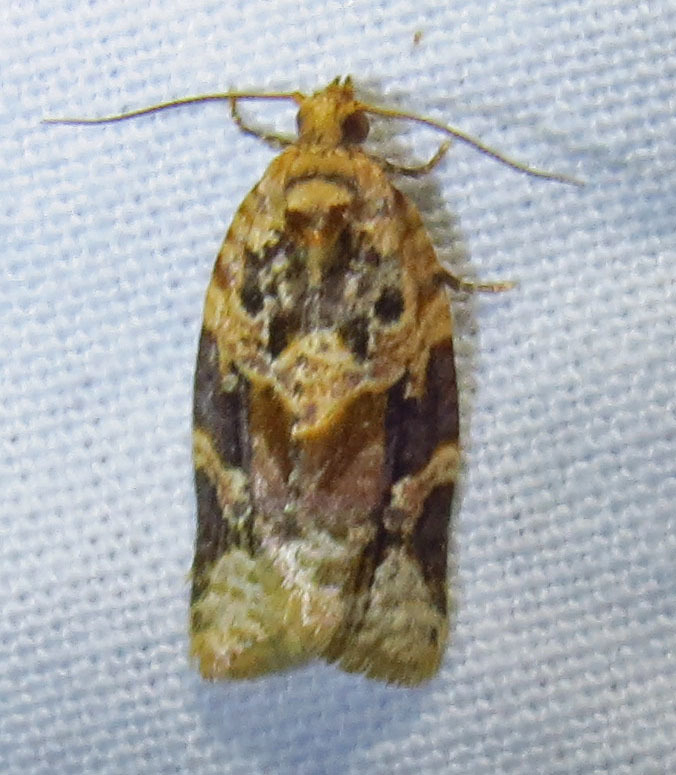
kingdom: Animalia
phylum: Arthropoda
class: Insecta
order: Lepidoptera
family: Tortricidae
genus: Argyrotaenia
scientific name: Argyrotaenia velutinana
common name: Red-banded leafroller moth
